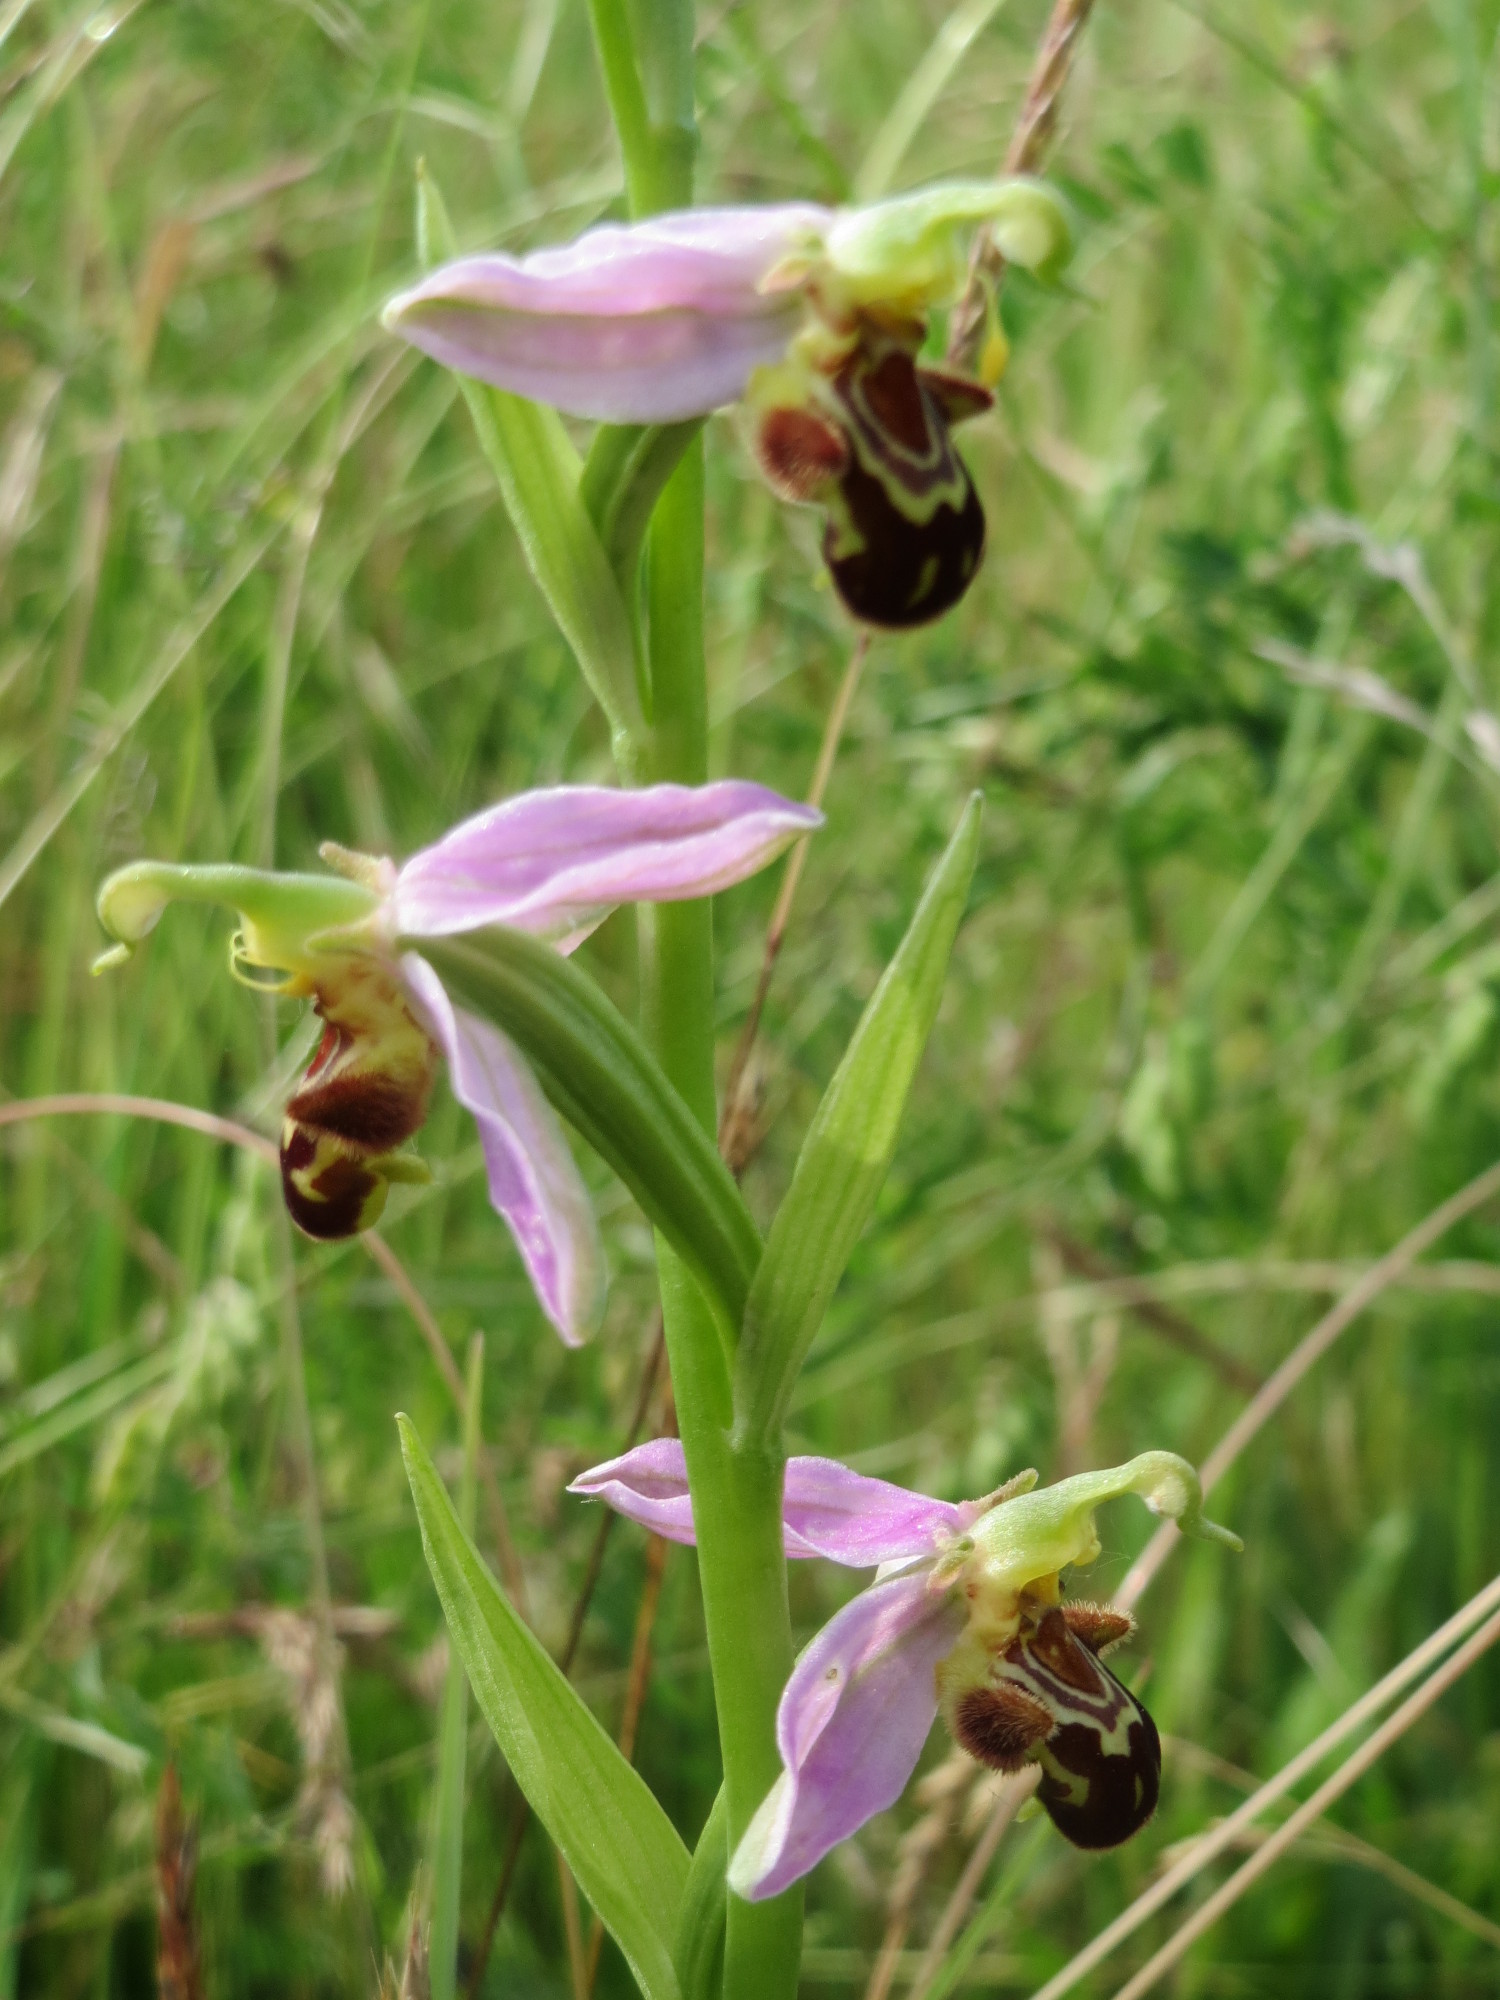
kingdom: Plantae
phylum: Tracheophyta
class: Liliopsida
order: Asparagales
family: Orchidaceae
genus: Ophrys
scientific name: Ophrys apifera
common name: Bee orchid
